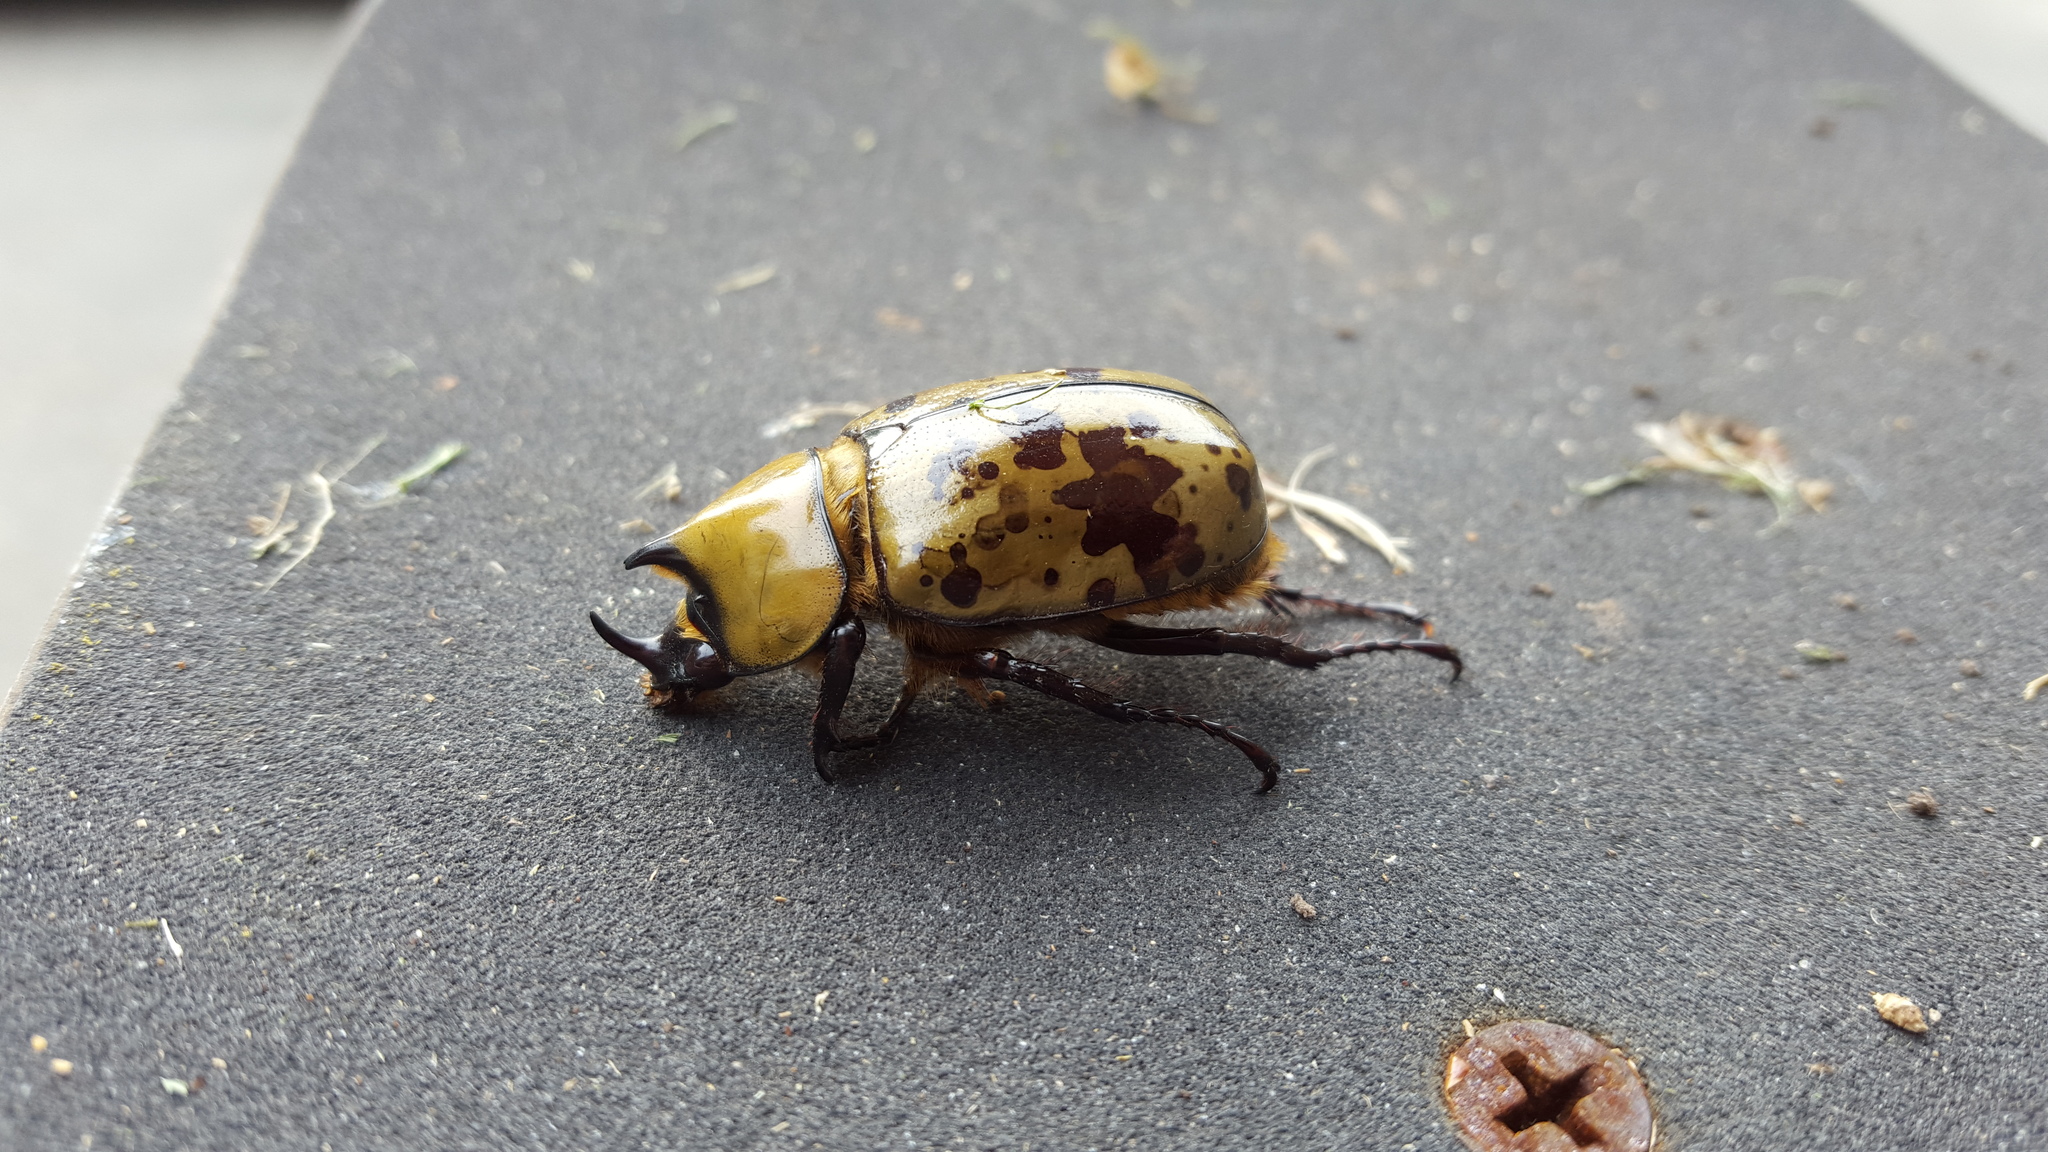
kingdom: Animalia
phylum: Arthropoda
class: Insecta
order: Coleoptera
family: Scarabaeidae
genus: Dynastes
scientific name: Dynastes tityus
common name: Eastern hercules beetle
